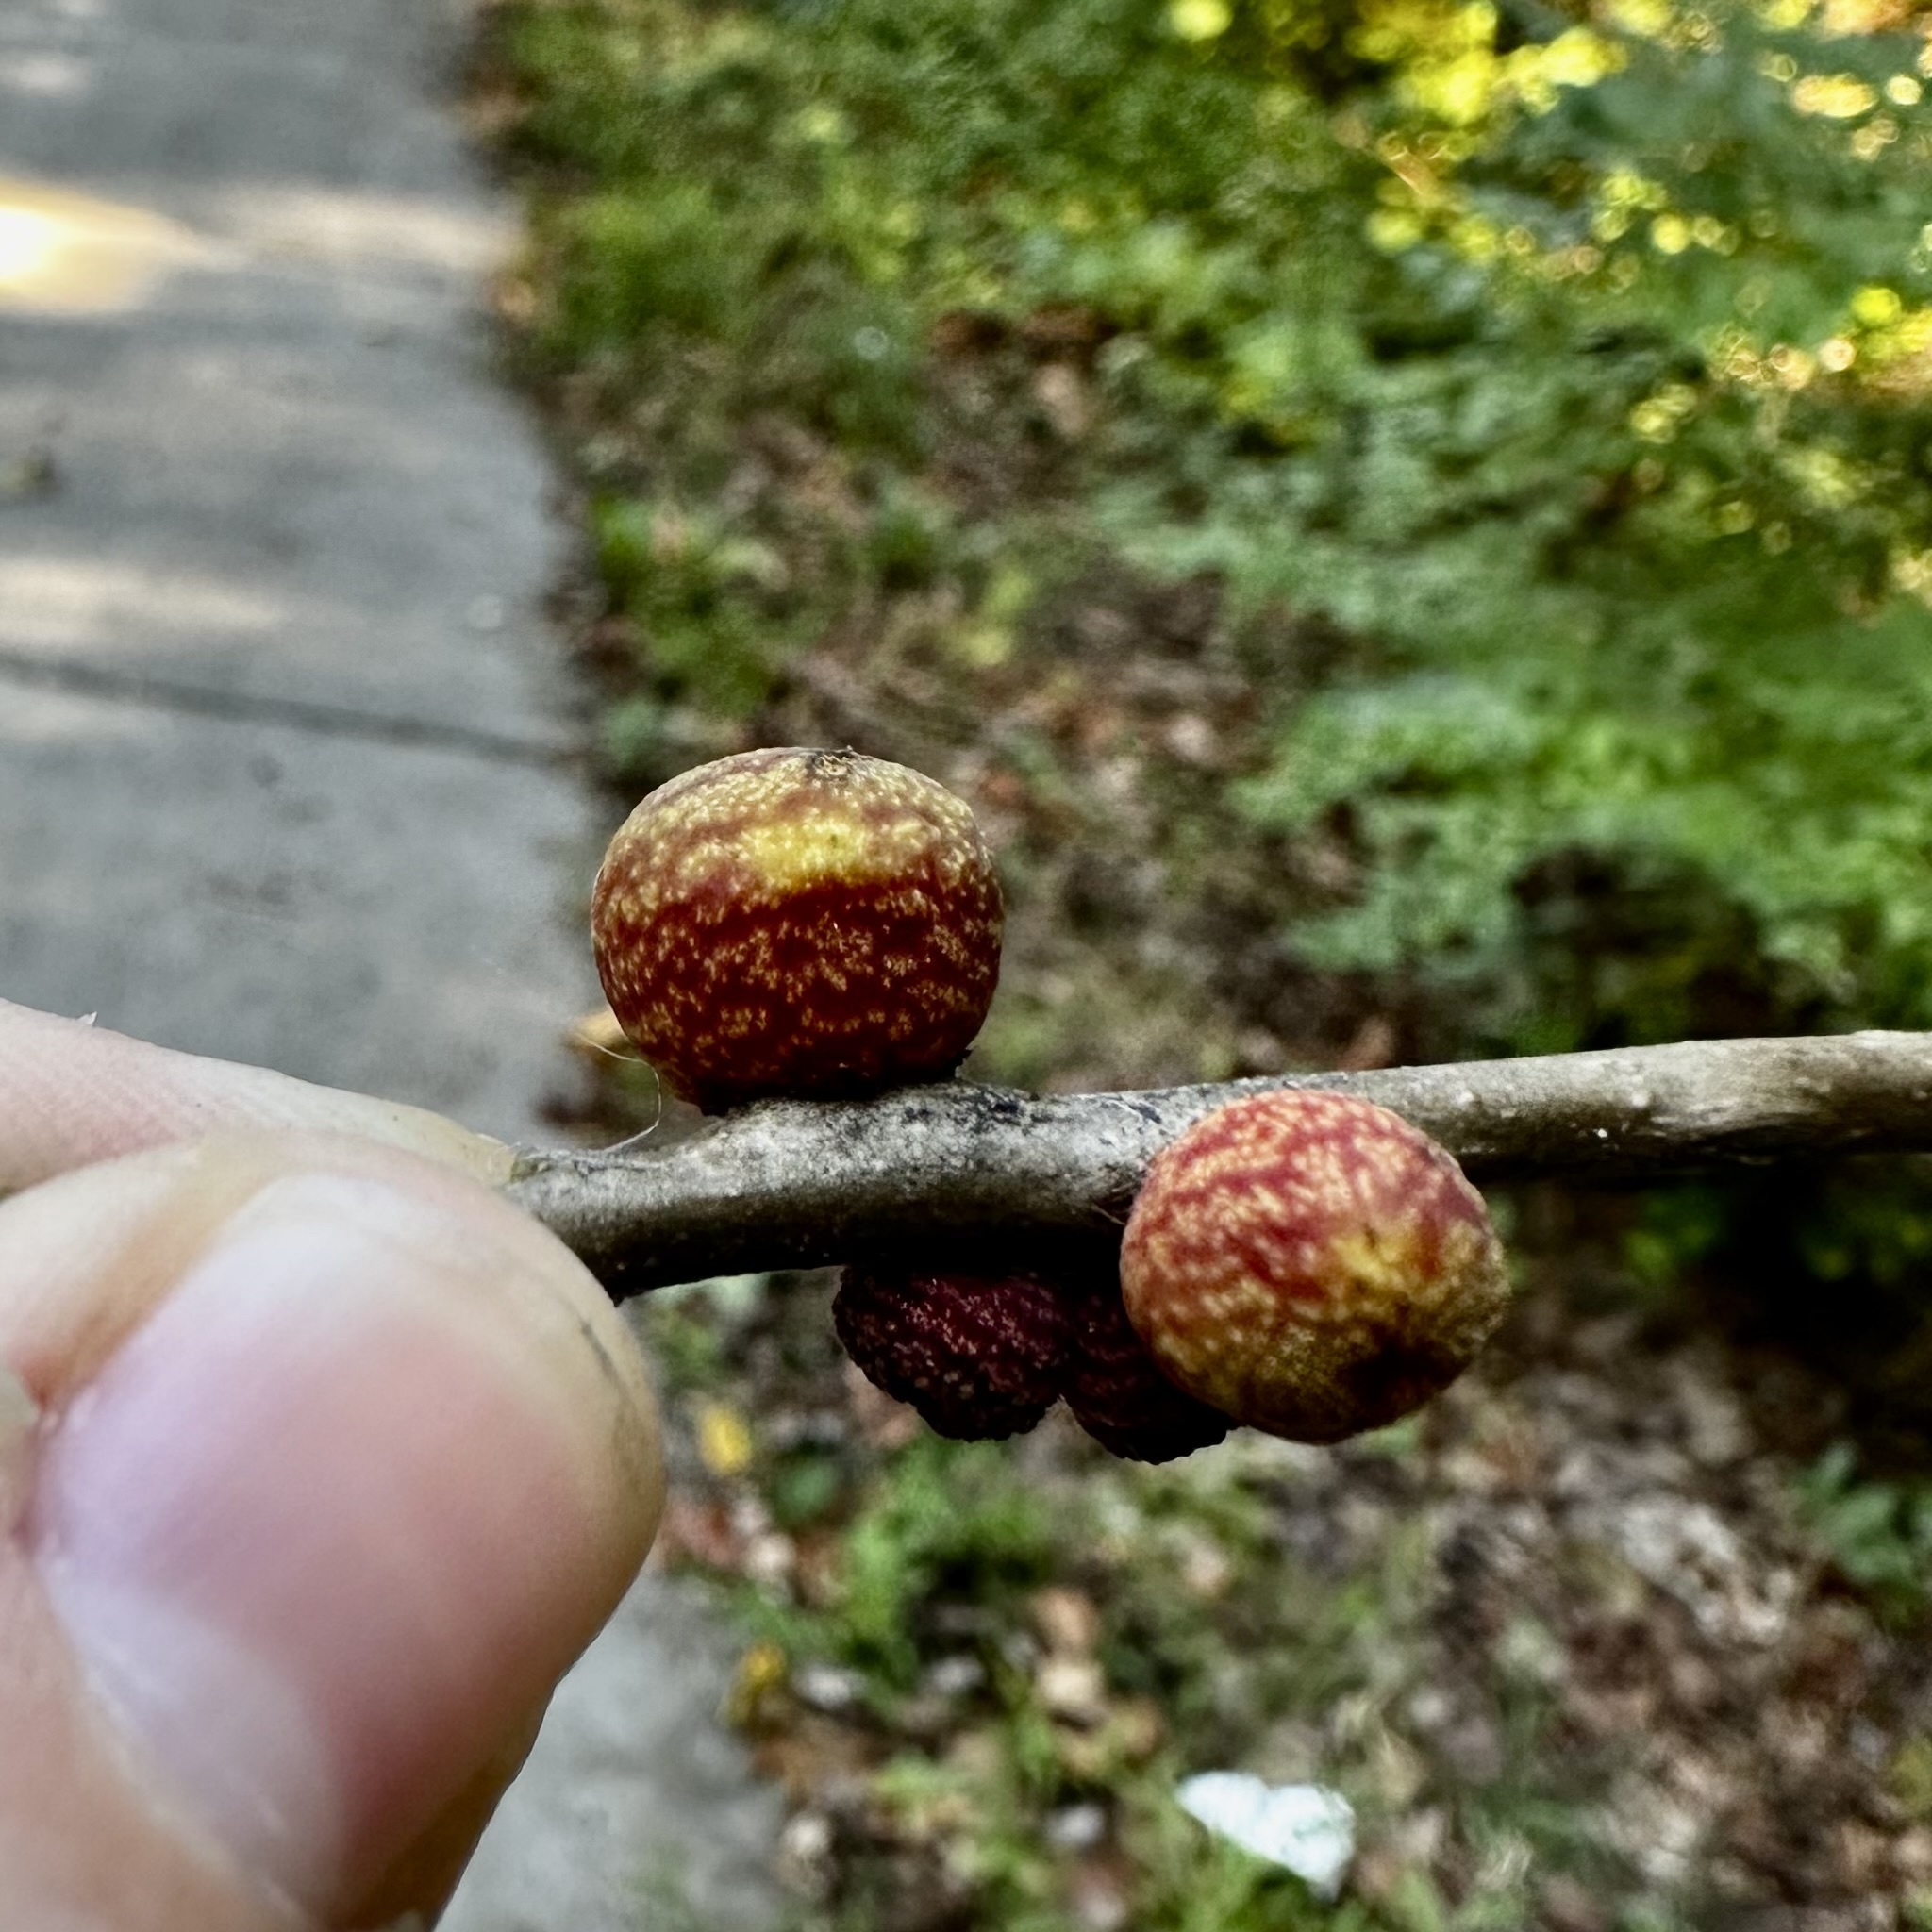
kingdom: Animalia
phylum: Arthropoda
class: Insecta
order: Hymenoptera
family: Cynipidae
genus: Kokkocynips
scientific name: Kokkocynips imbricariae
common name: Banded bullet gall wasp
